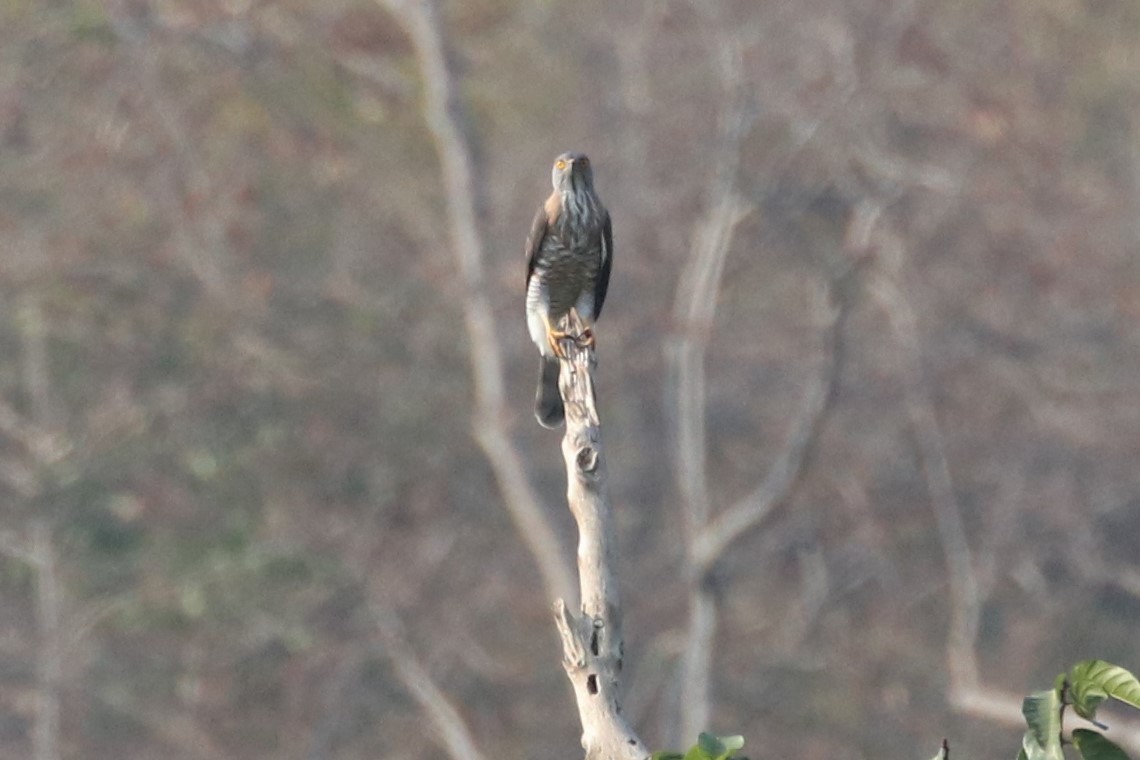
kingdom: Animalia
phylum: Chordata
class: Aves
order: Accipitriformes
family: Accipitridae
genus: Accipiter
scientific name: Accipiter trivirgatus
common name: Crested goshawk
